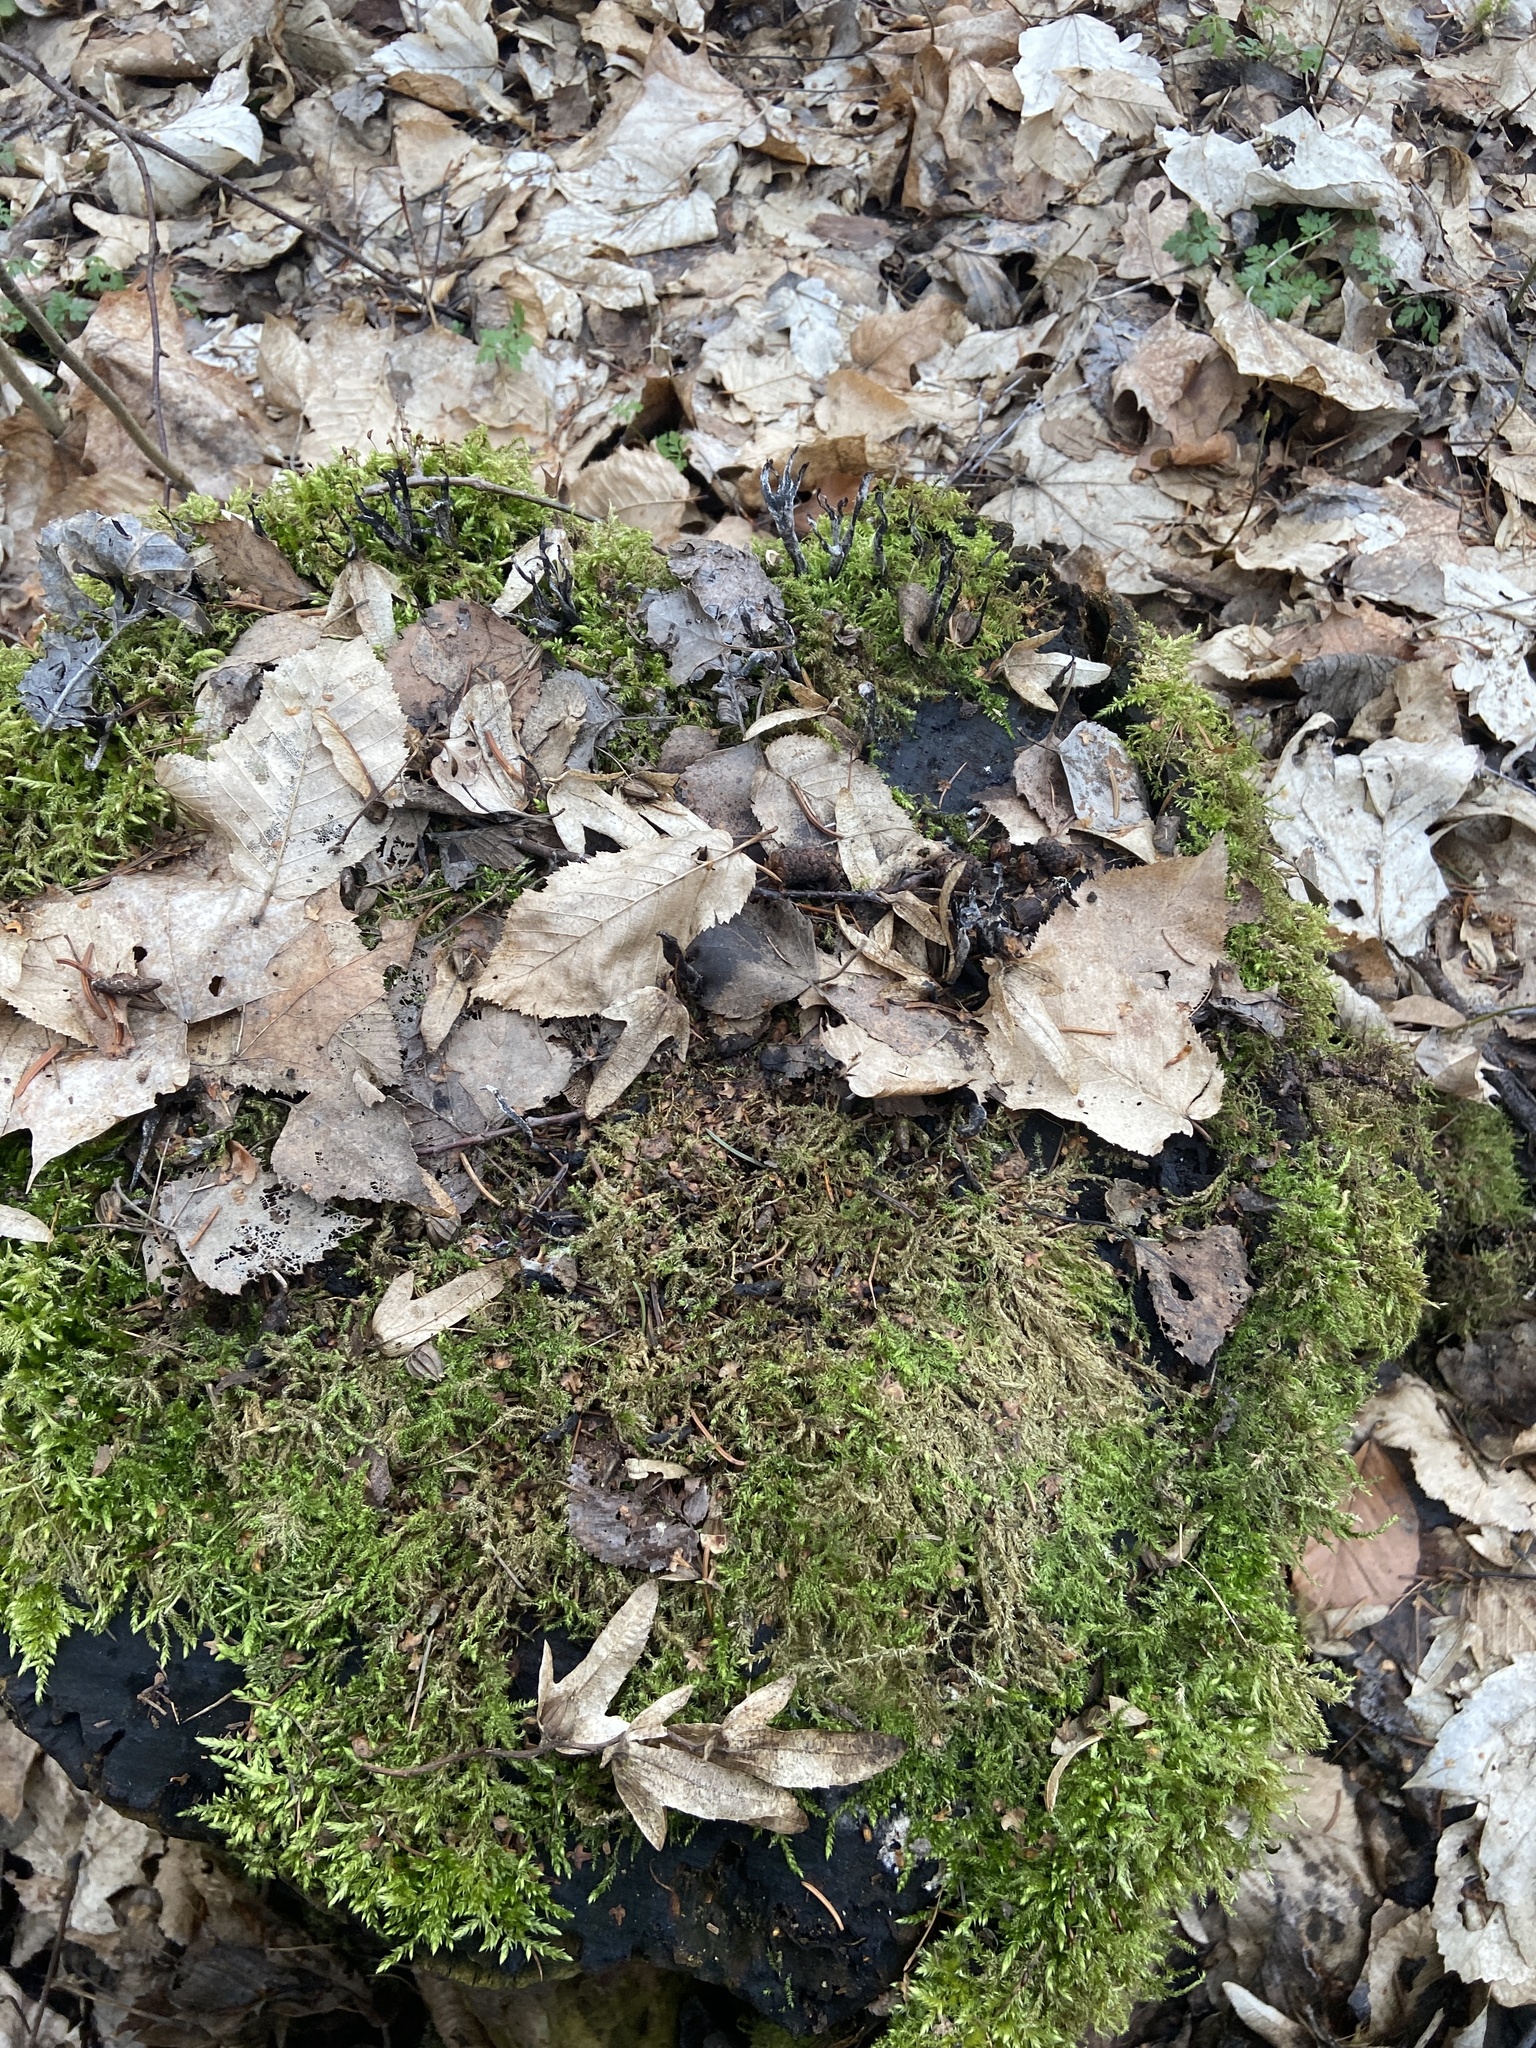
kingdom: Fungi
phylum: Ascomycota
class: Sordariomycetes
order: Xylariales
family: Xylariaceae
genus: Xylaria
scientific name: Xylaria hypoxylon
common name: Candle-snuff fungus
